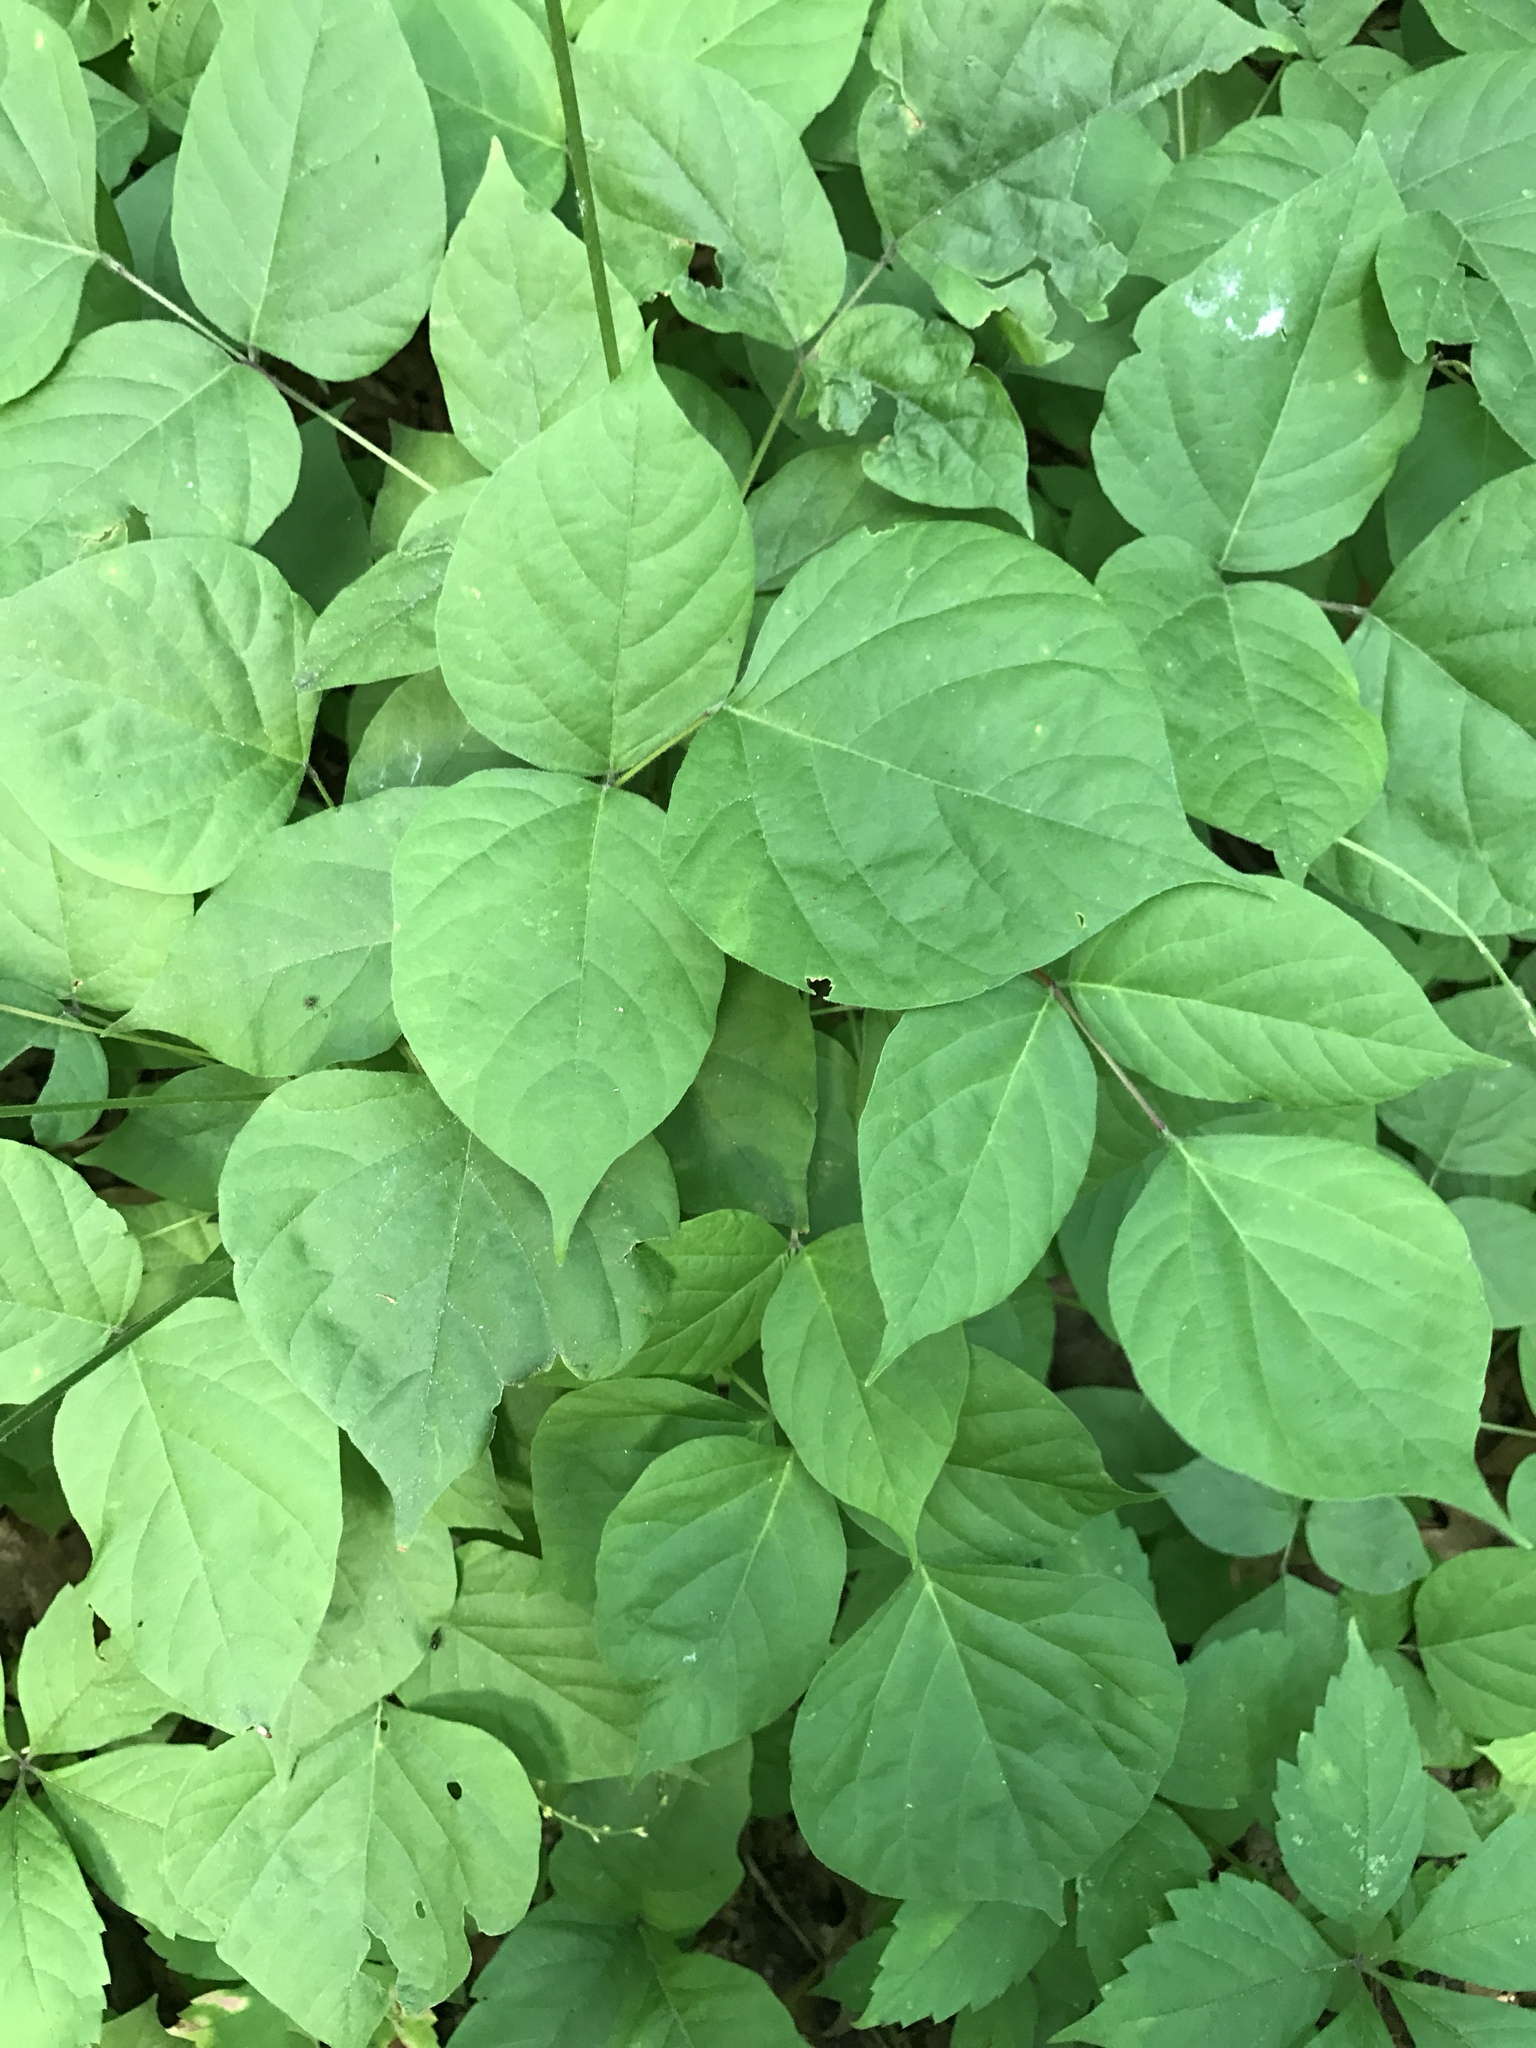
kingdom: Plantae
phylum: Tracheophyta
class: Magnoliopsida
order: Fabales
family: Fabaceae
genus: Hylodesmum
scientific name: Hylodesmum glutinosum
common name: Clustered-leaved tick-trefoil
